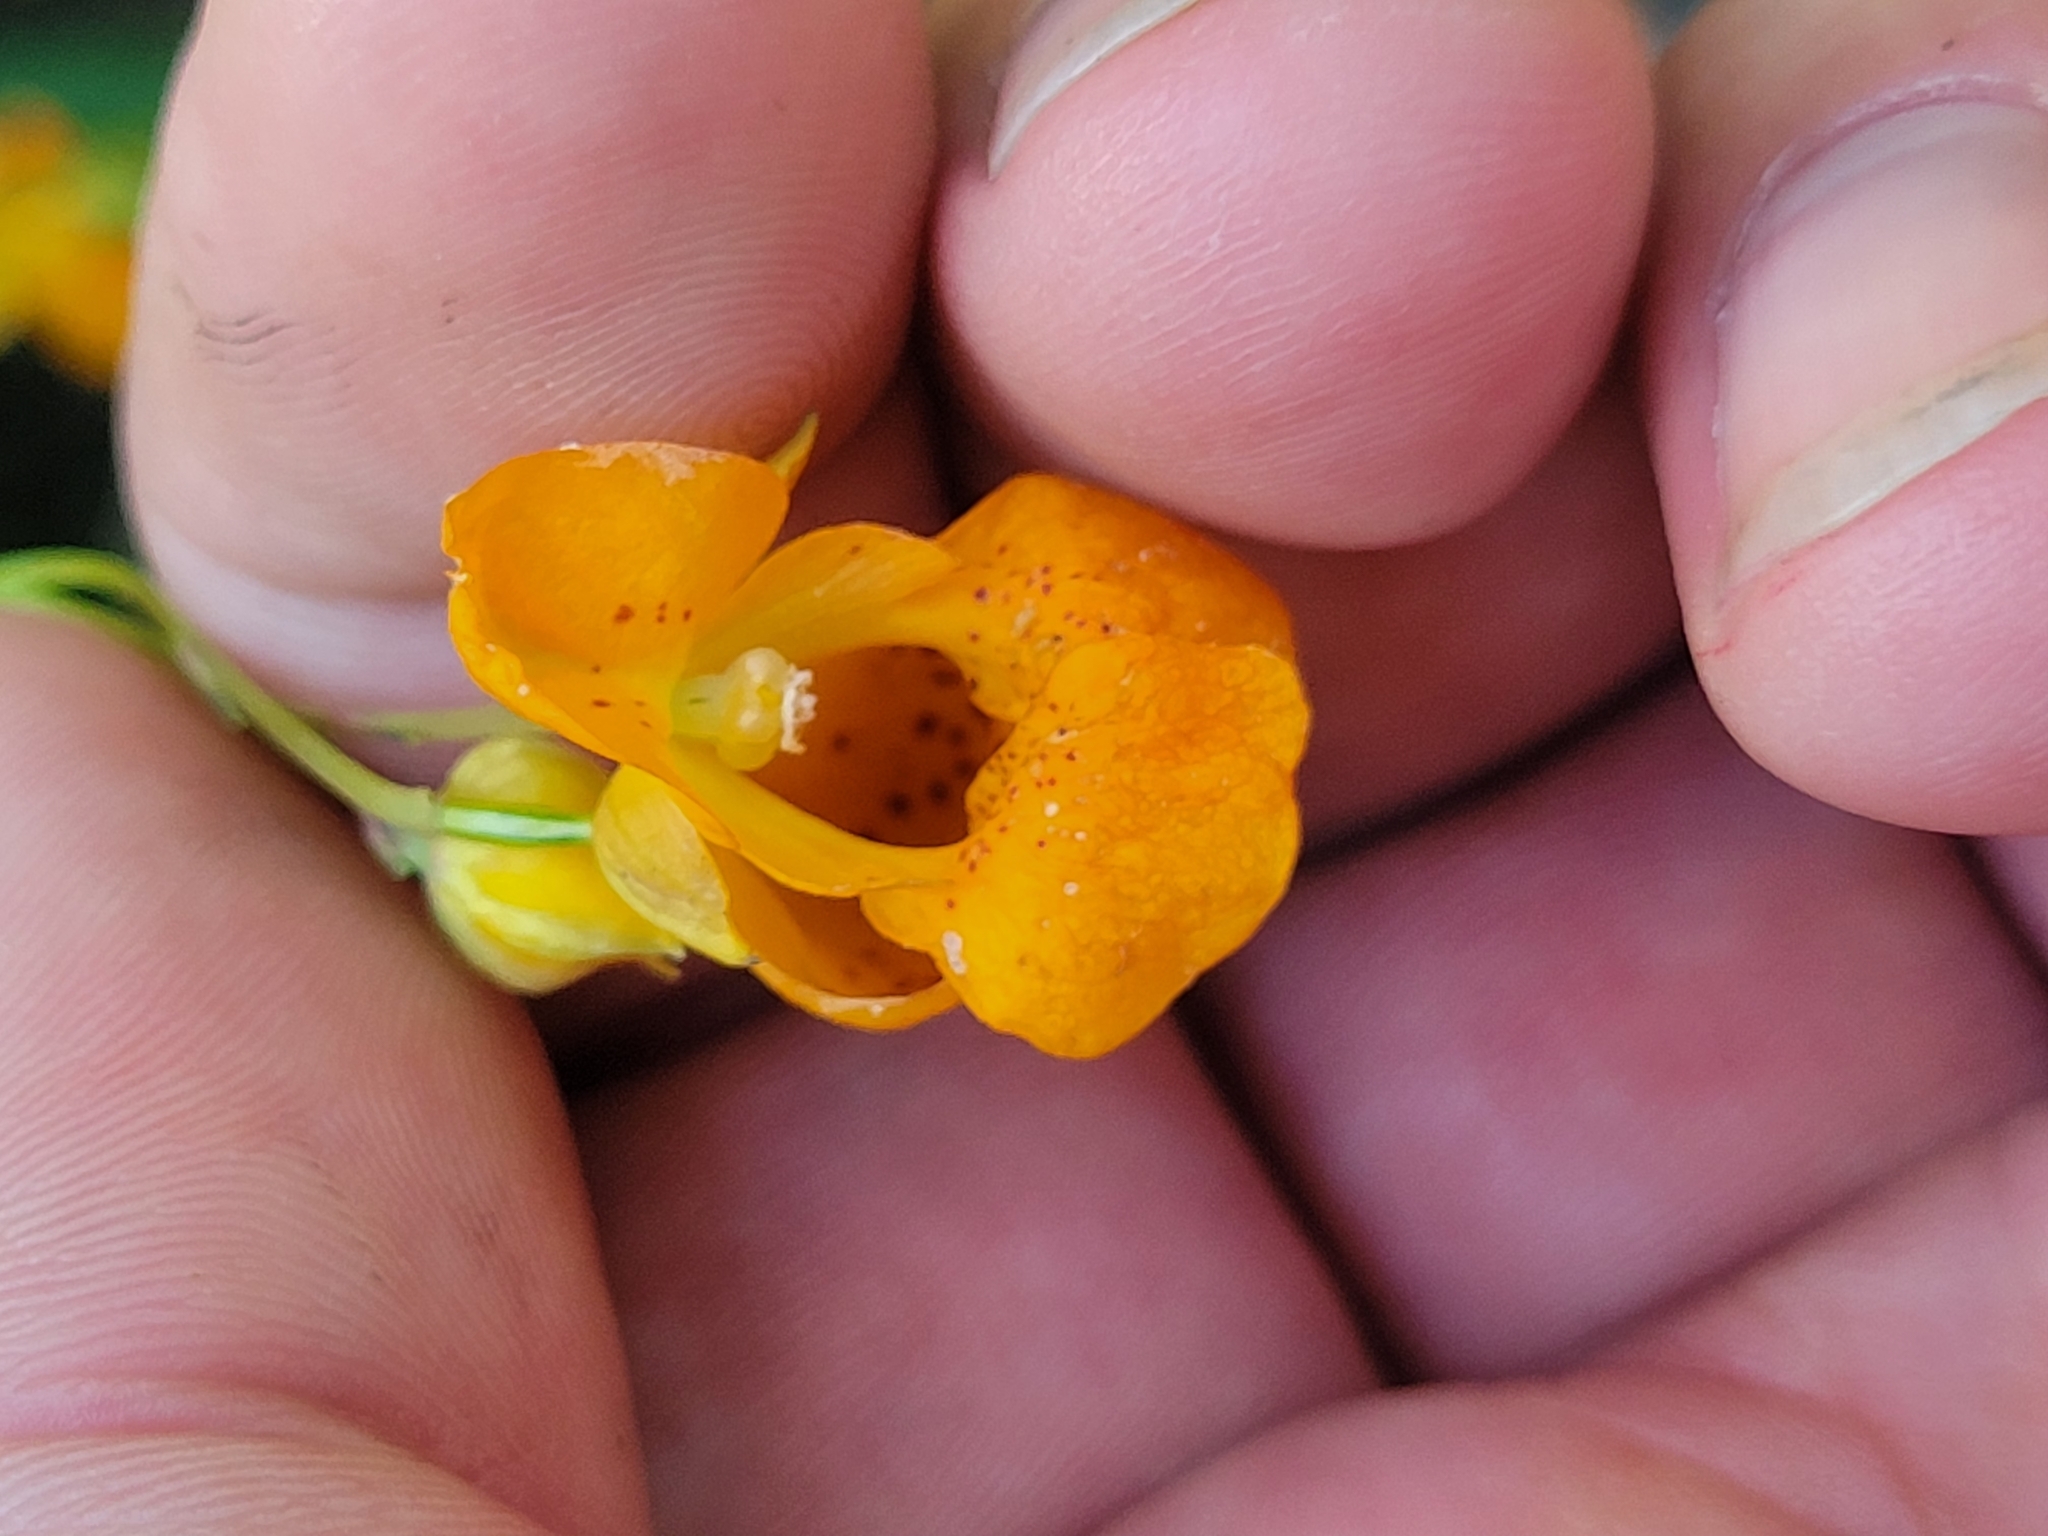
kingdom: Plantae
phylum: Tracheophyta
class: Magnoliopsida
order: Ericales
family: Balsaminaceae
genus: Impatiens
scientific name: Impatiens capensis
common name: Orange balsam
